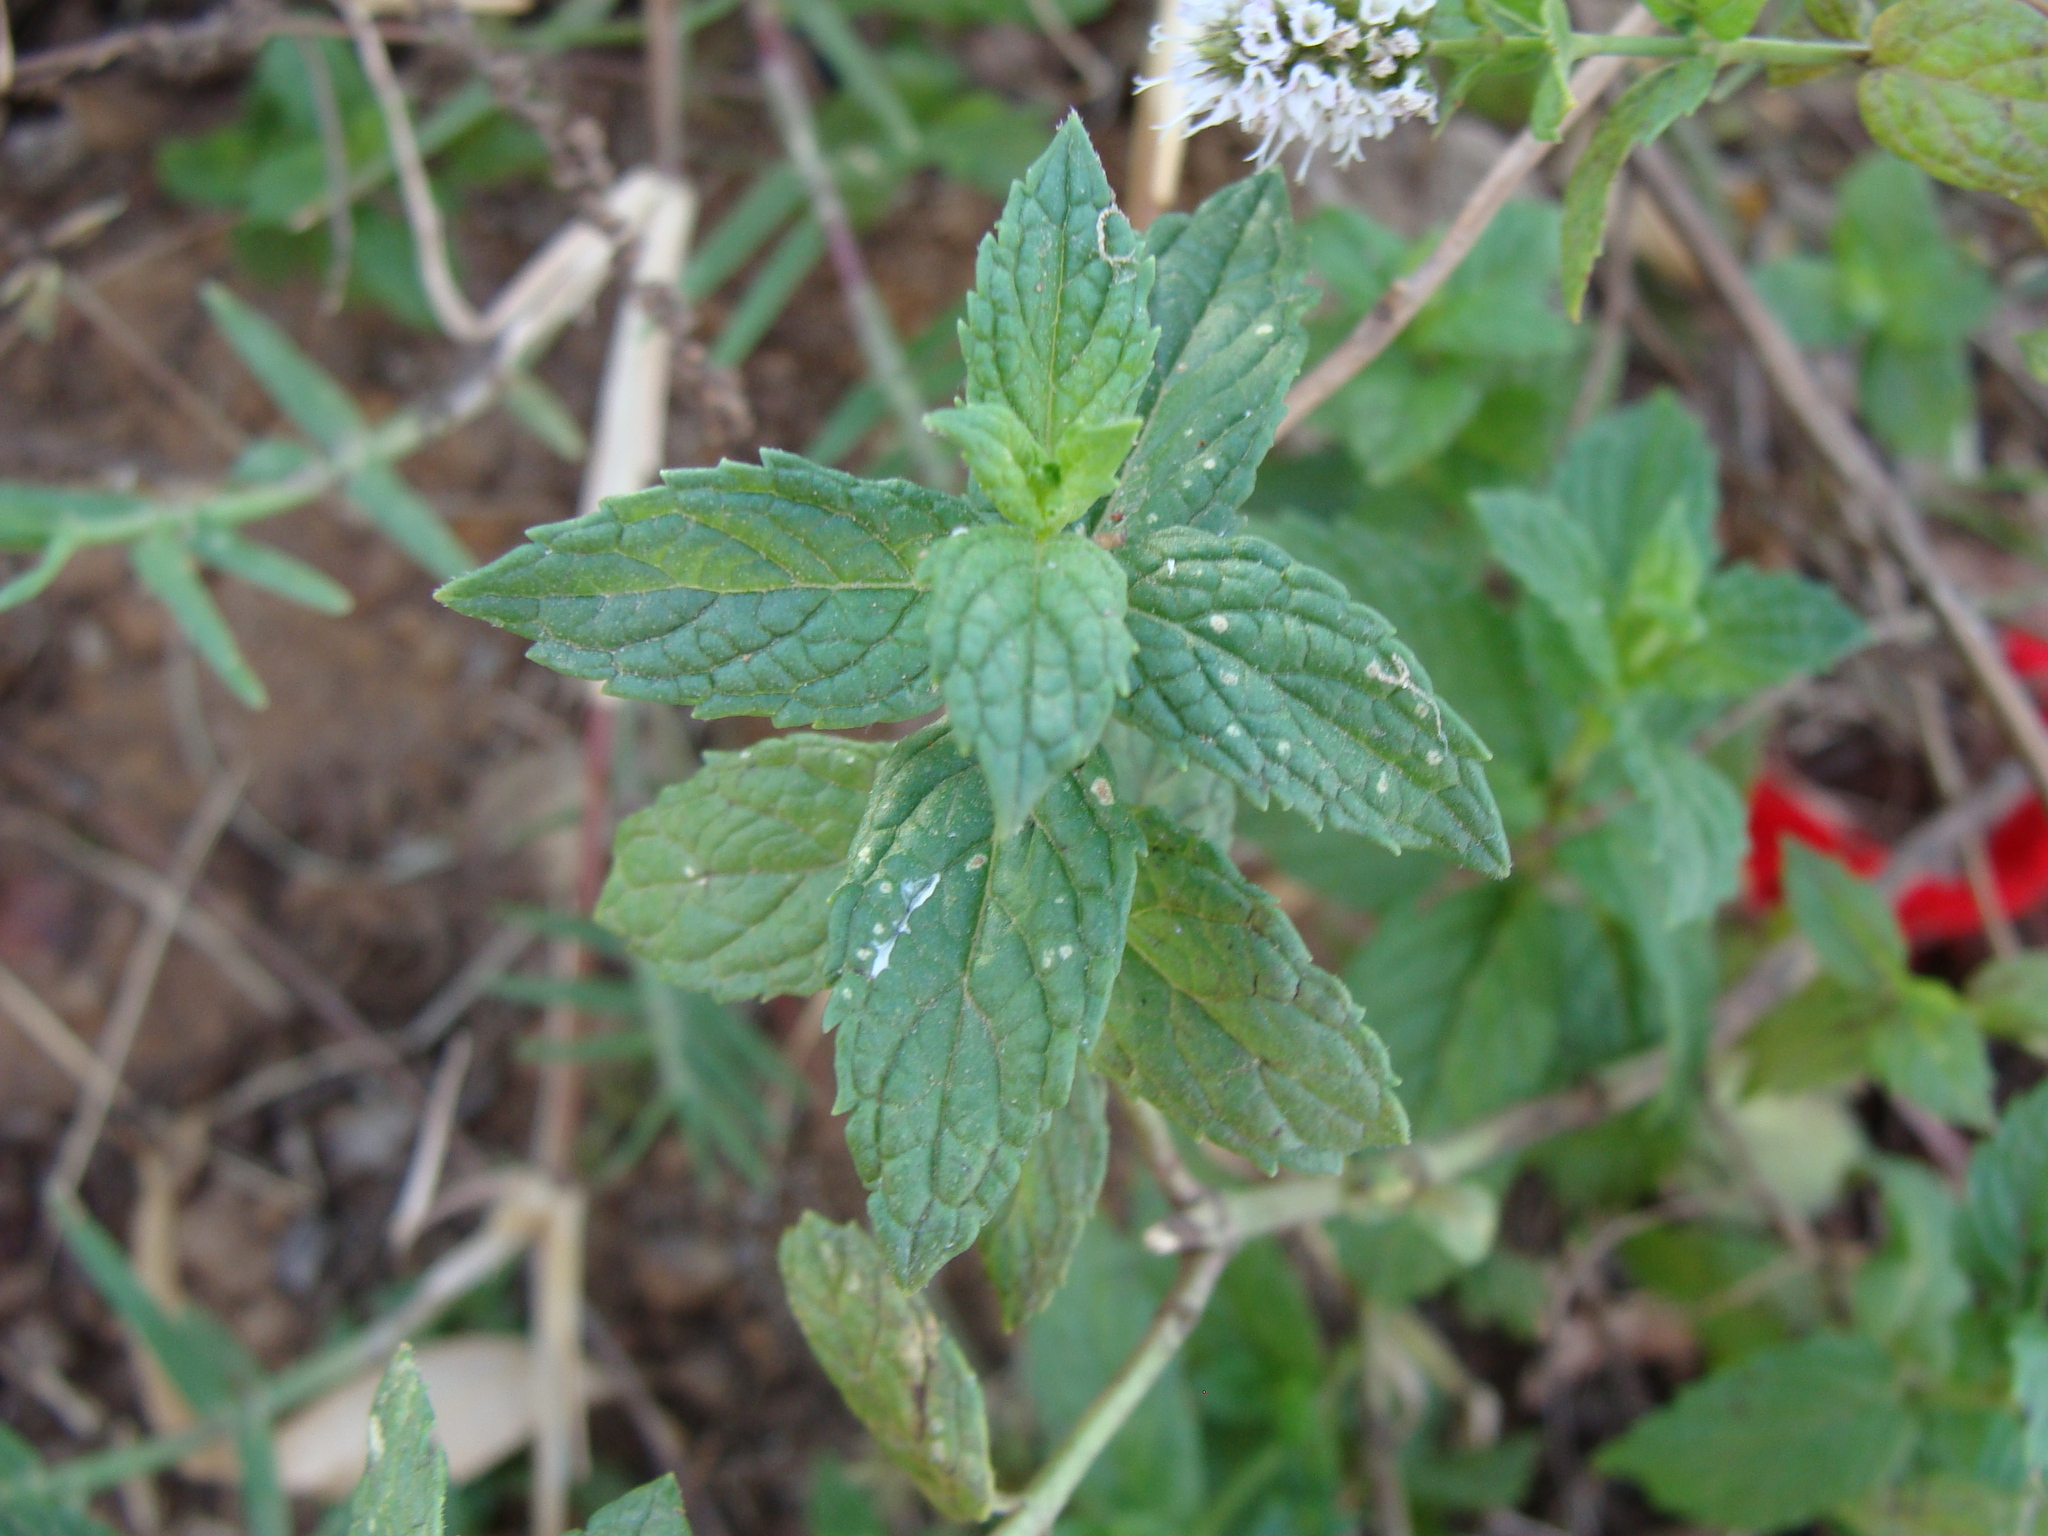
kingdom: Plantae
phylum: Tracheophyta
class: Magnoliopsida
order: Lamiales
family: Lamiaceae
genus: Mentha
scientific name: Mentha spicata
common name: Spearmint
